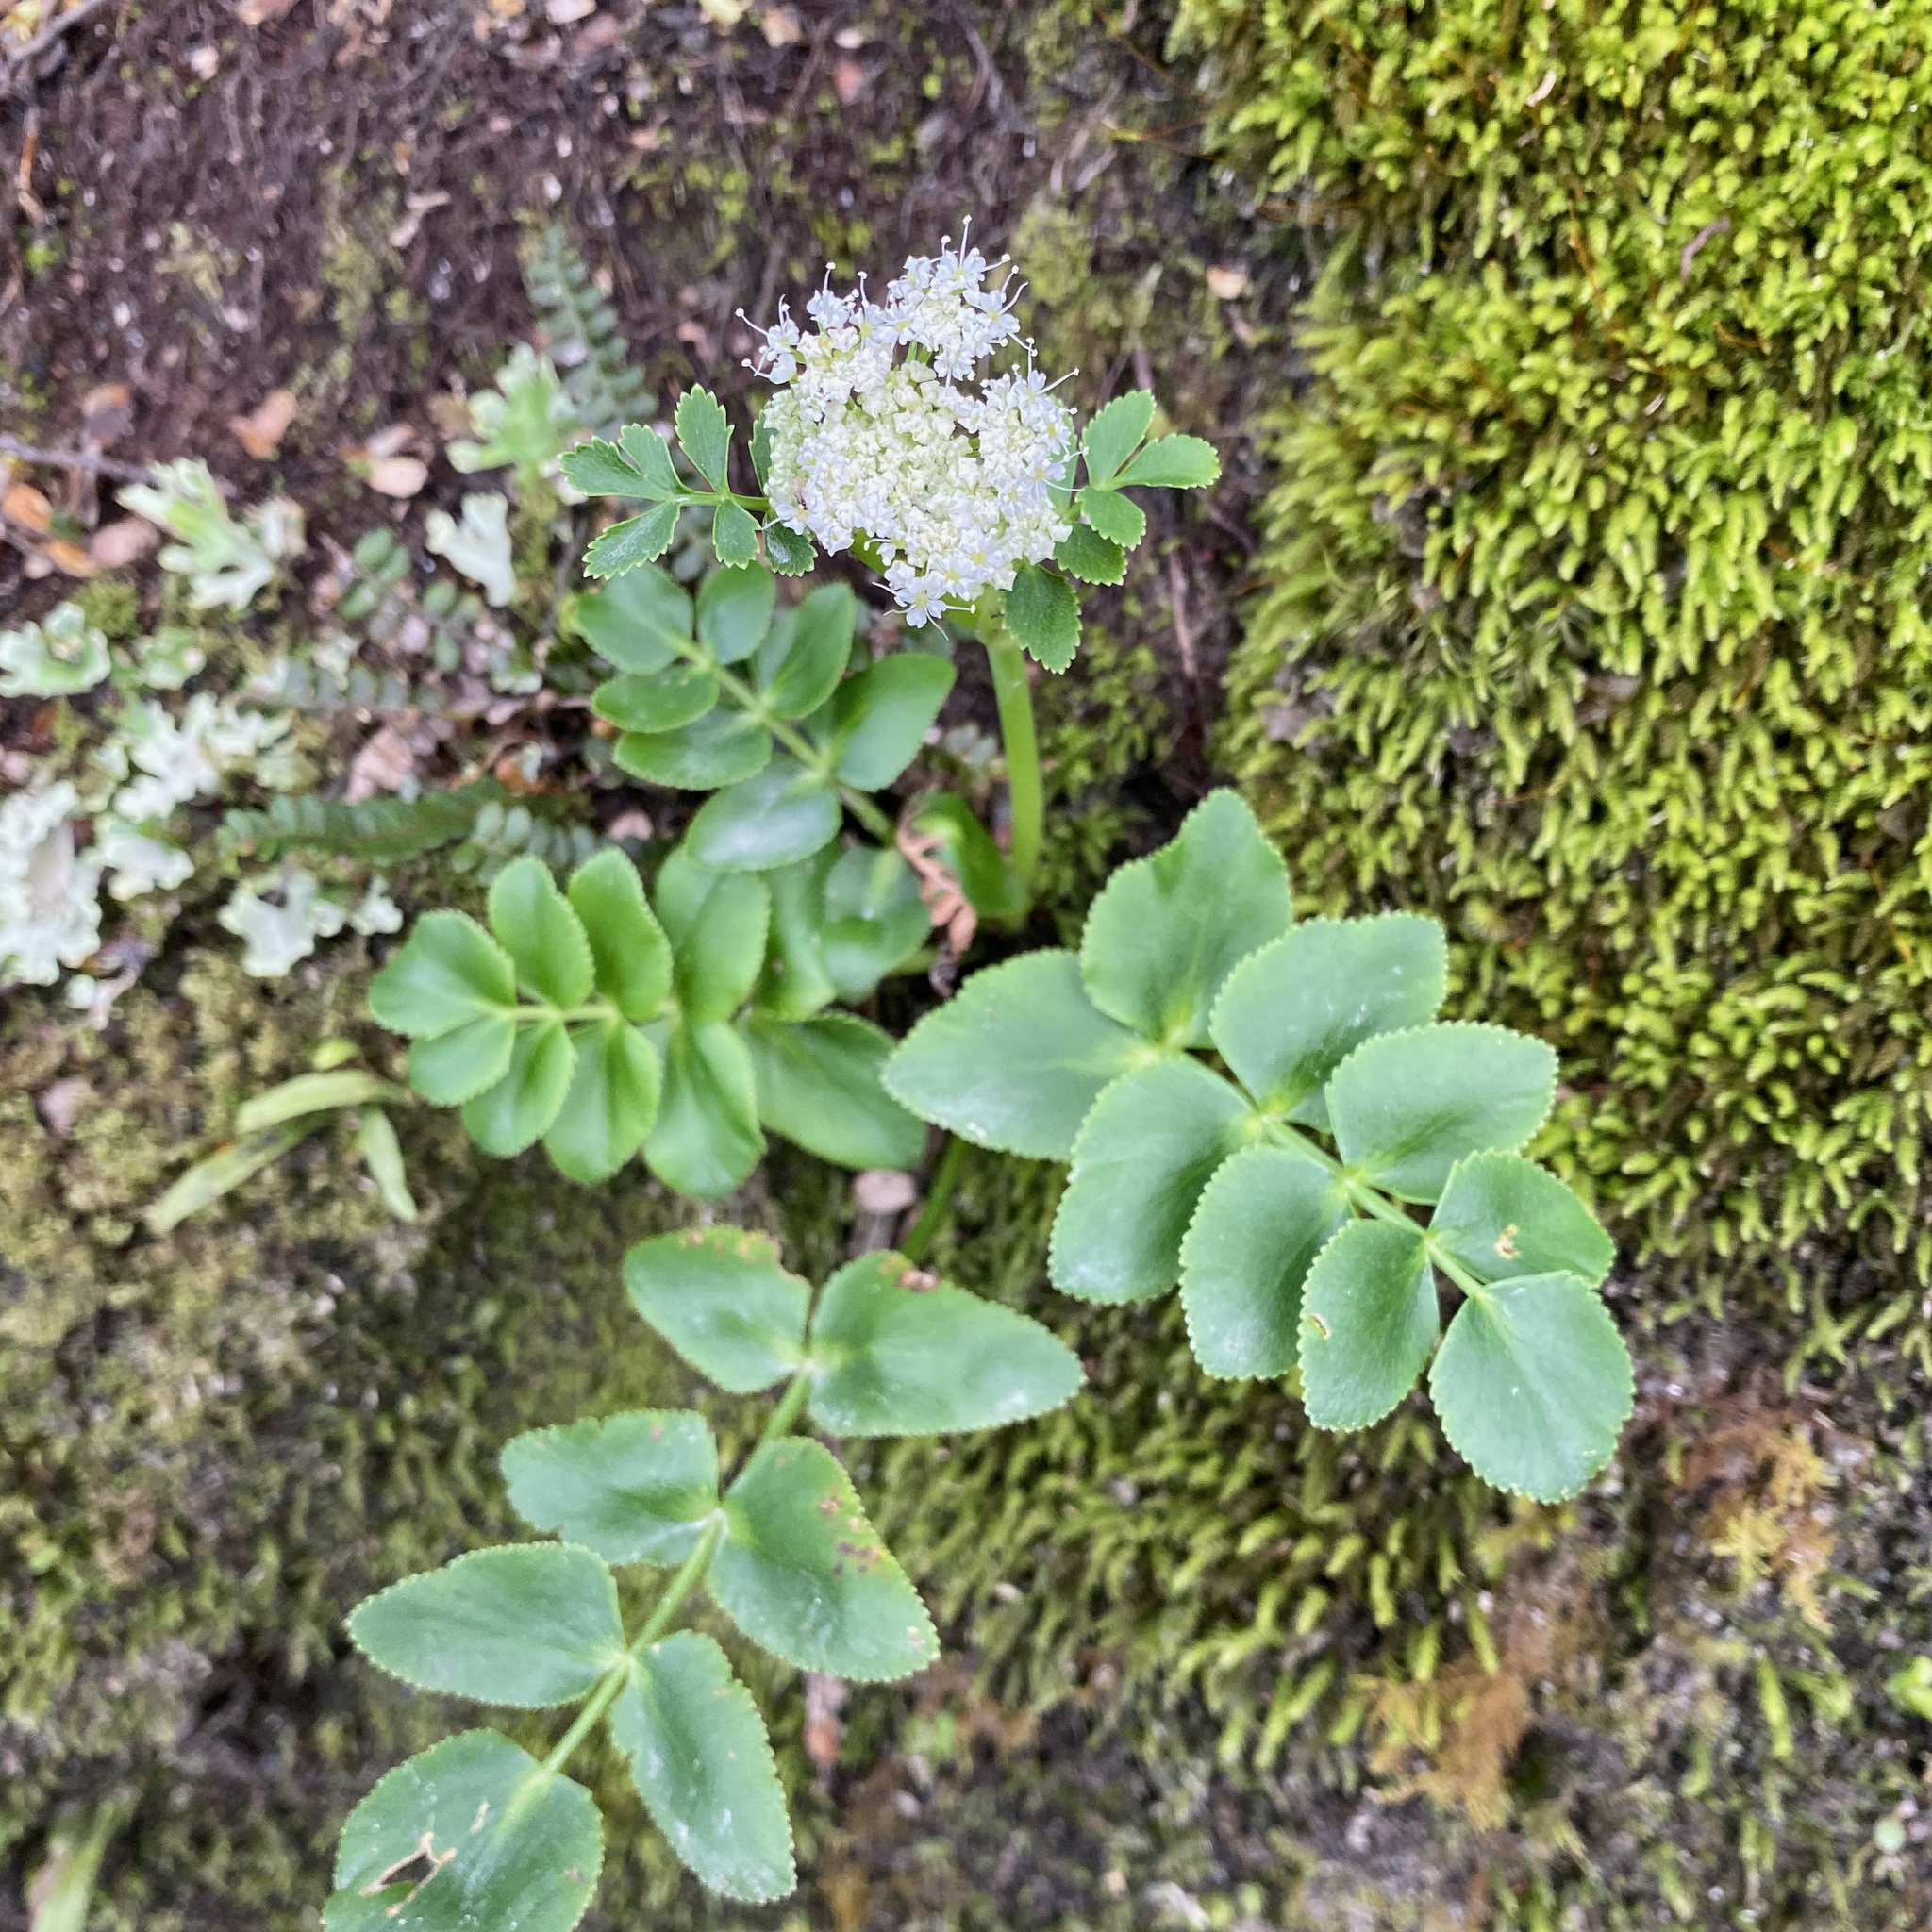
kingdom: Plantae
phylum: Tracheophyta
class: Magnoliopsida
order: Apiales
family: Apiaceae
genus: Gingidia
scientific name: Gingidia montana
